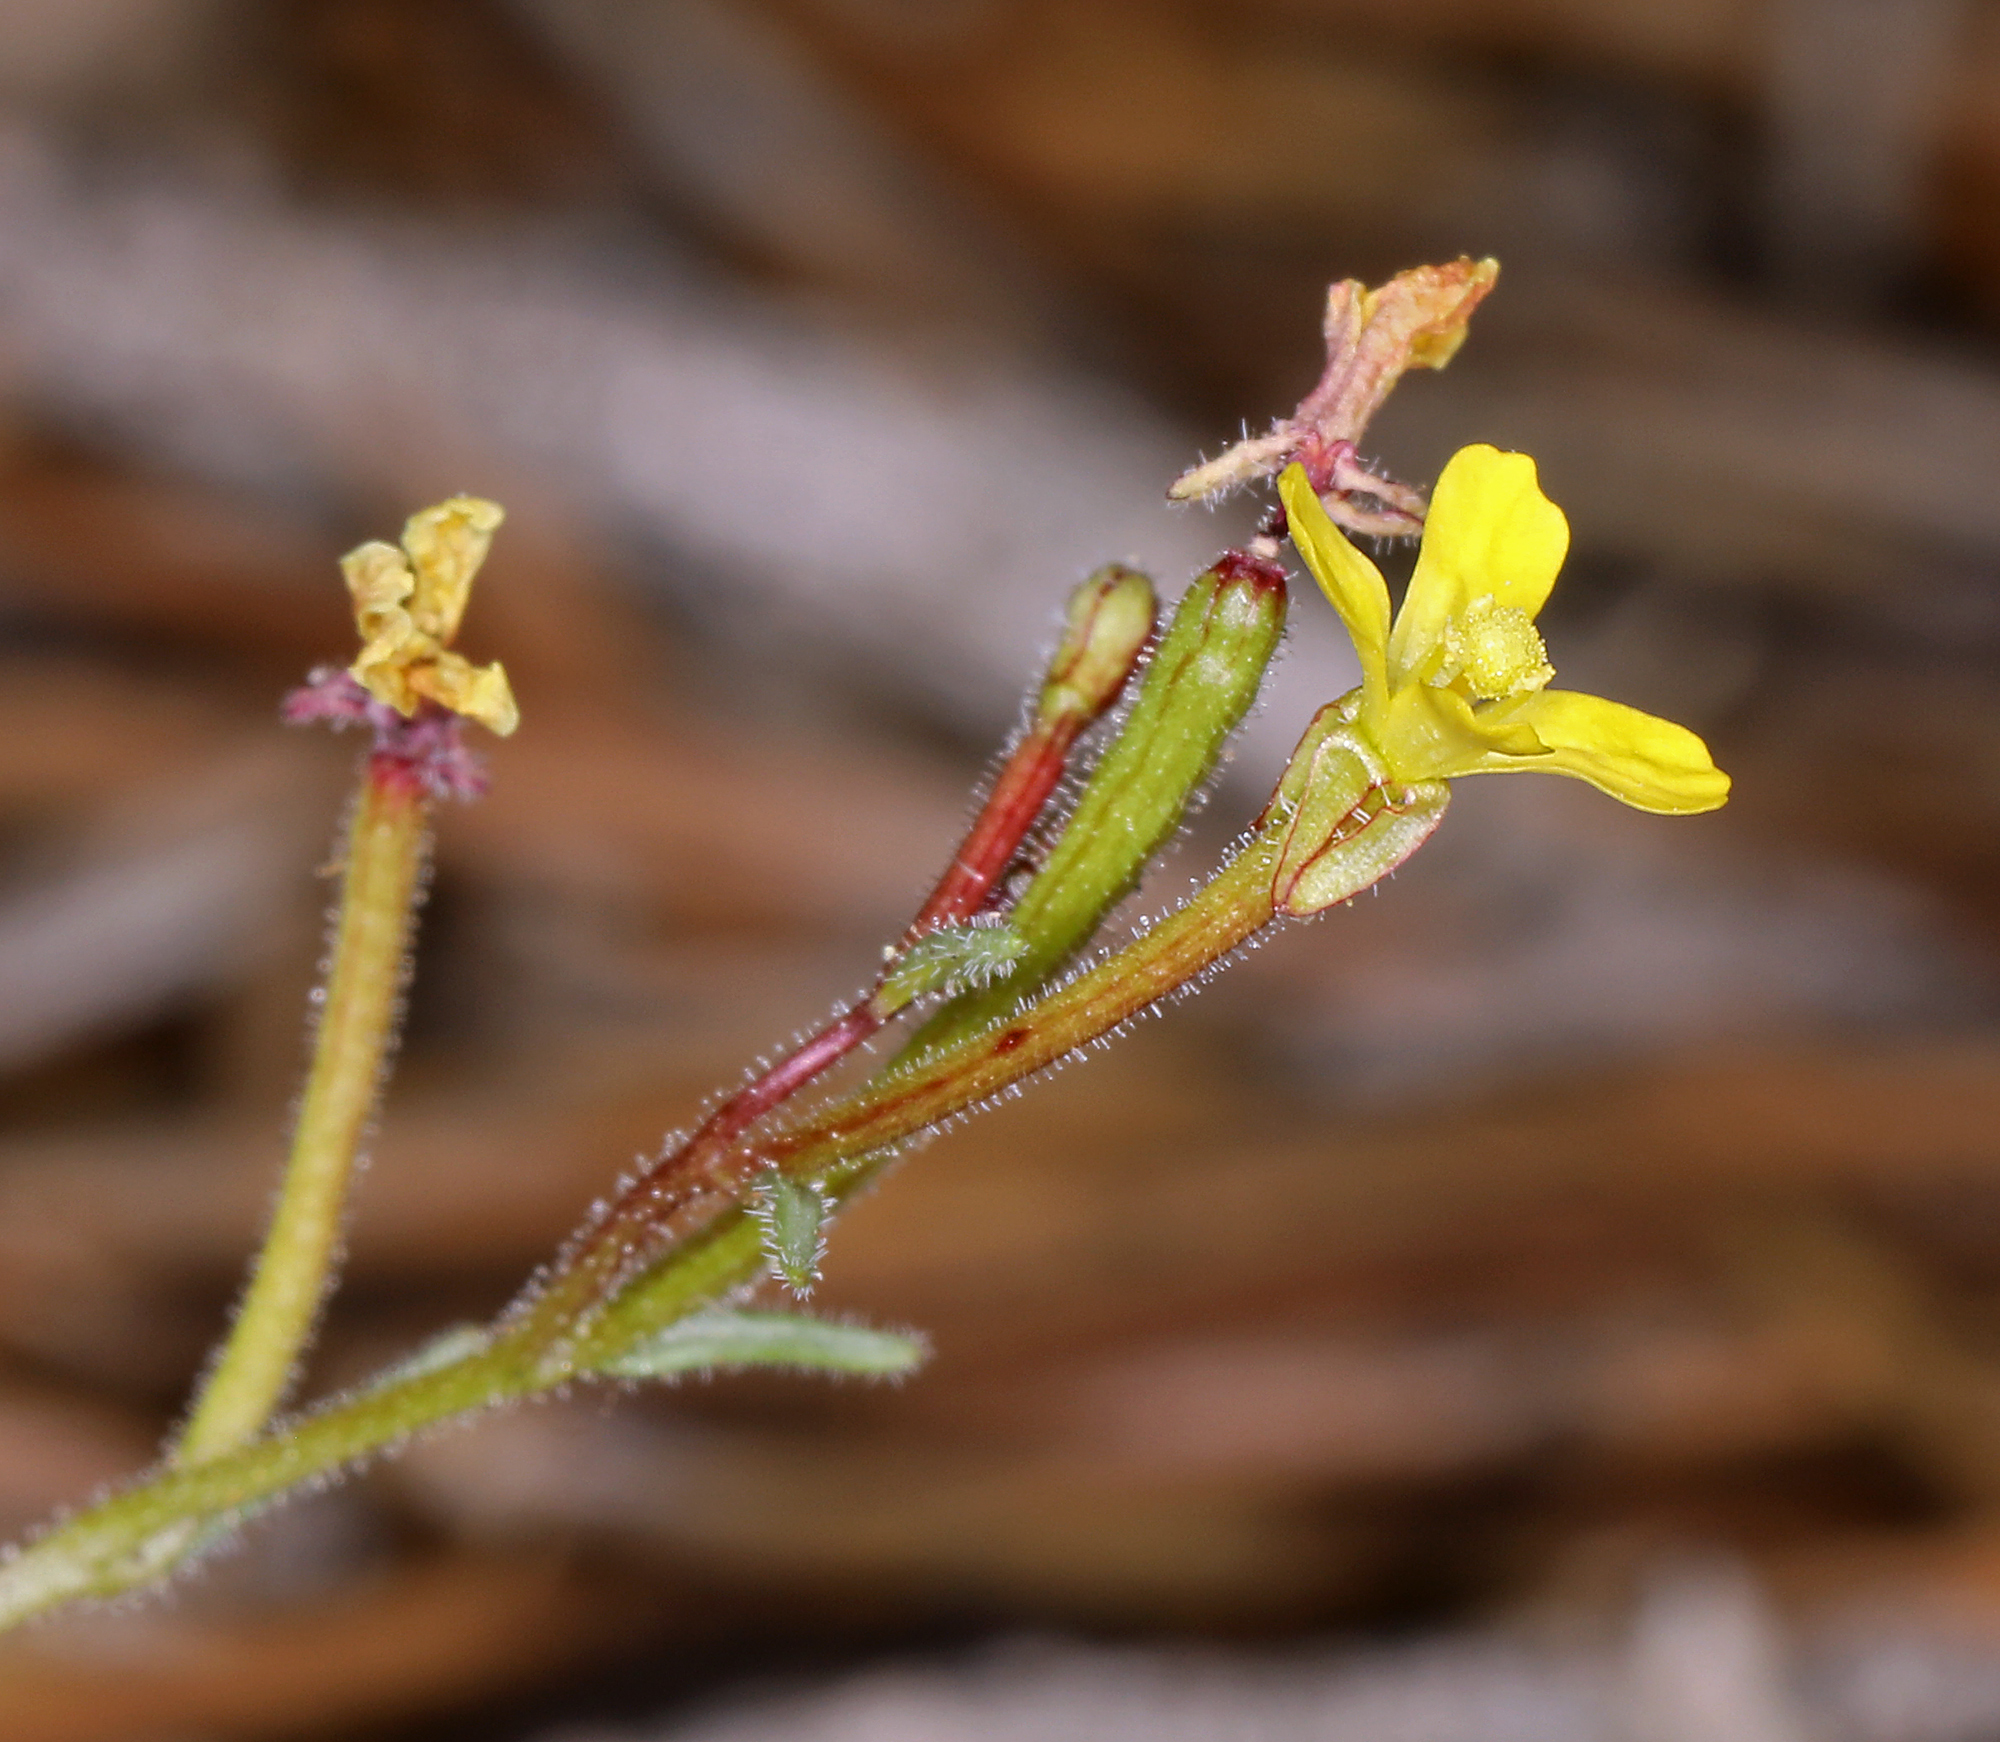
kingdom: Plantae
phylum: Tracheophyta
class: Magnoliopsida
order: Myrtales
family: Onagraceae
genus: Camissonia
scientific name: Camissonia pusilla
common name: Obscure camissonia
